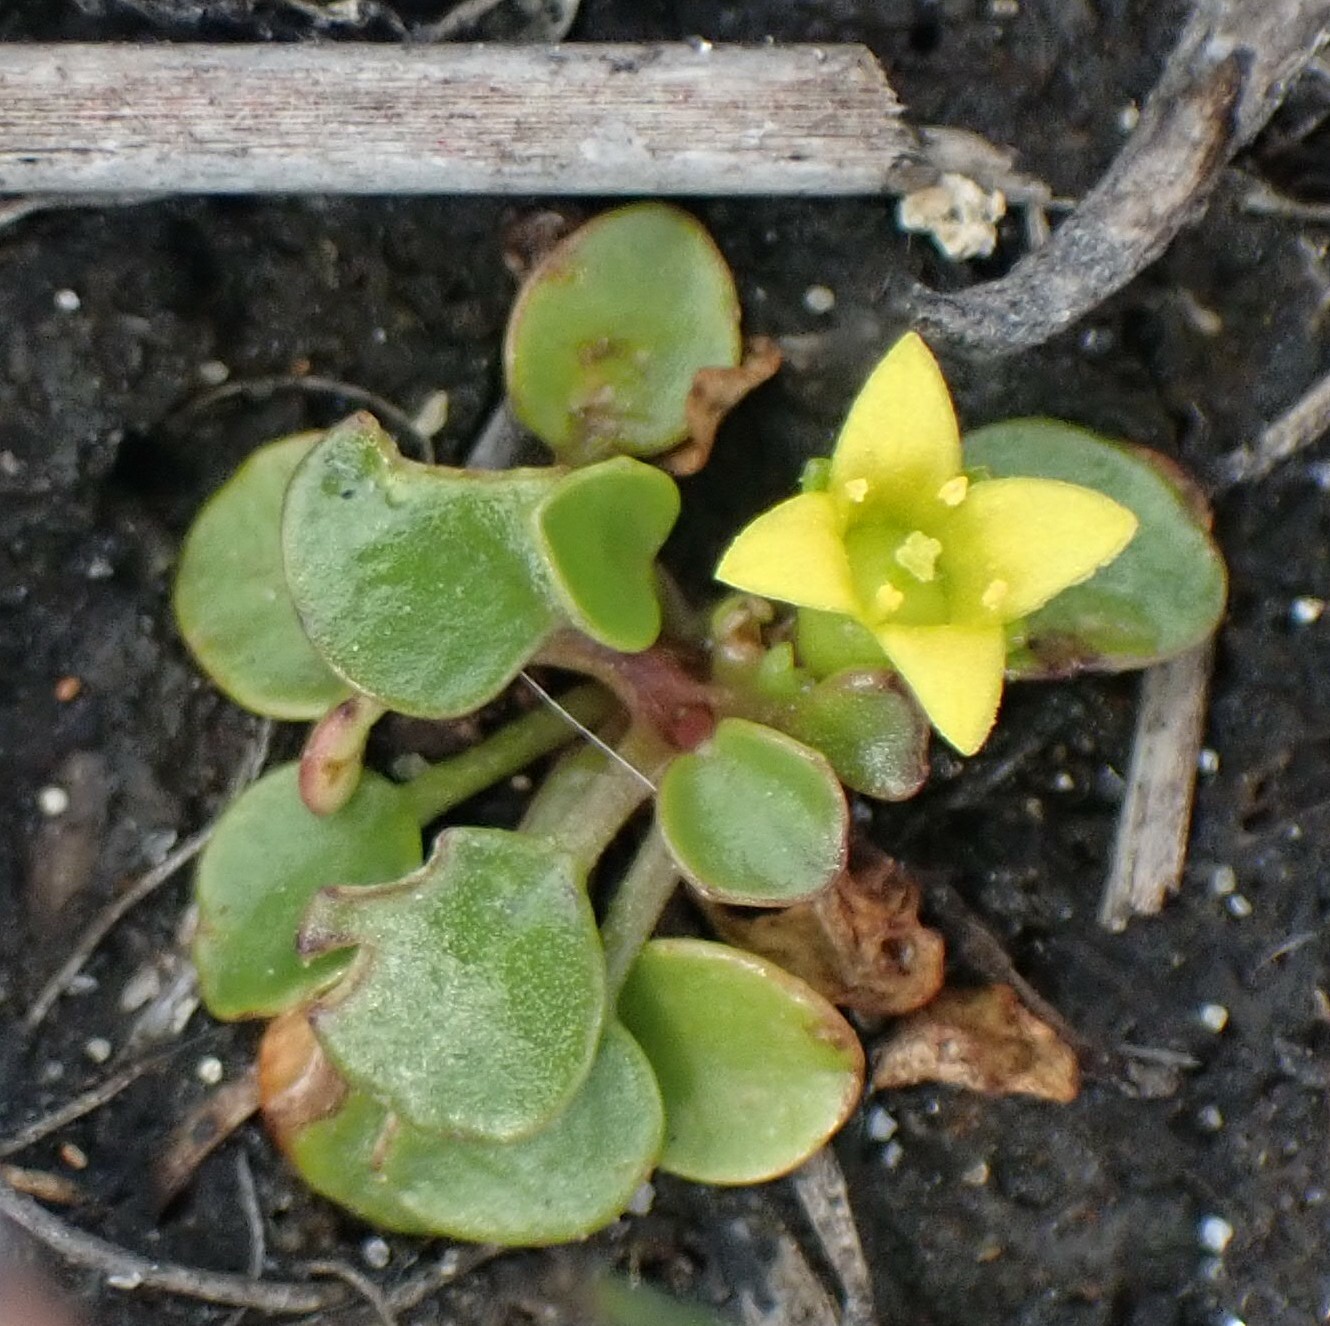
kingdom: Plantae
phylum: Tracheophyta
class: Magnoliopsida
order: Asterales
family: Menyanthaceae
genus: Liparophyllum
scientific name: Liparophyllum exiguum
